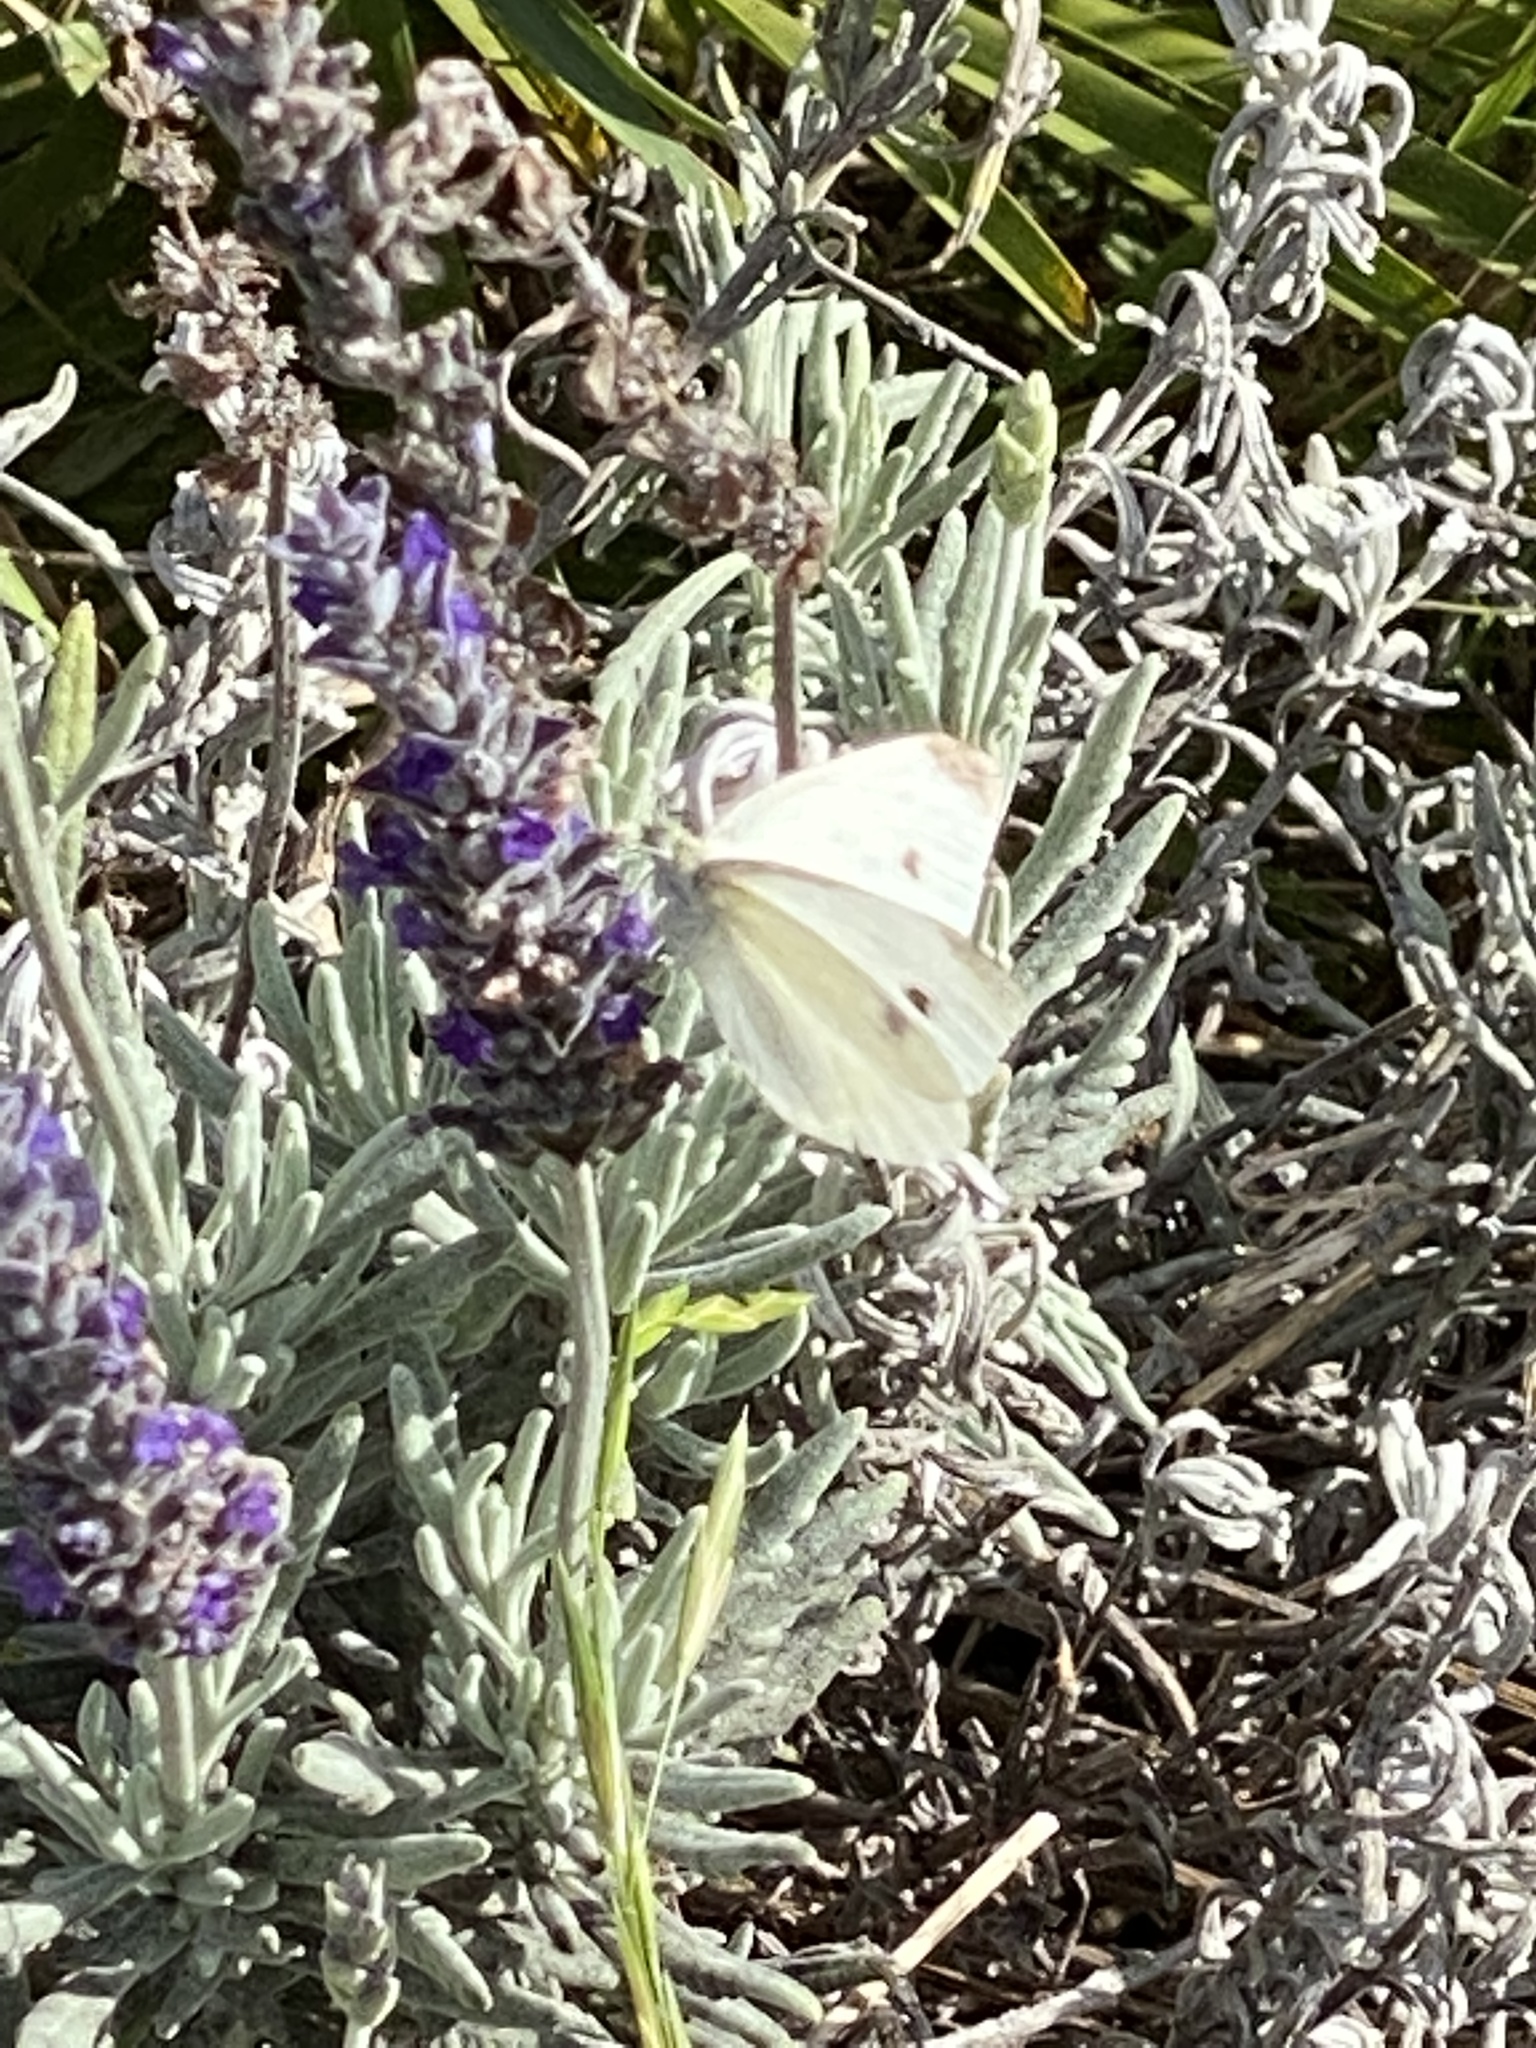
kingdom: Animalia
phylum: Arthropoda
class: Insecta
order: Lepidoptera
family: Pieridae
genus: Pieris
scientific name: Pieris rapae
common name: Small white
